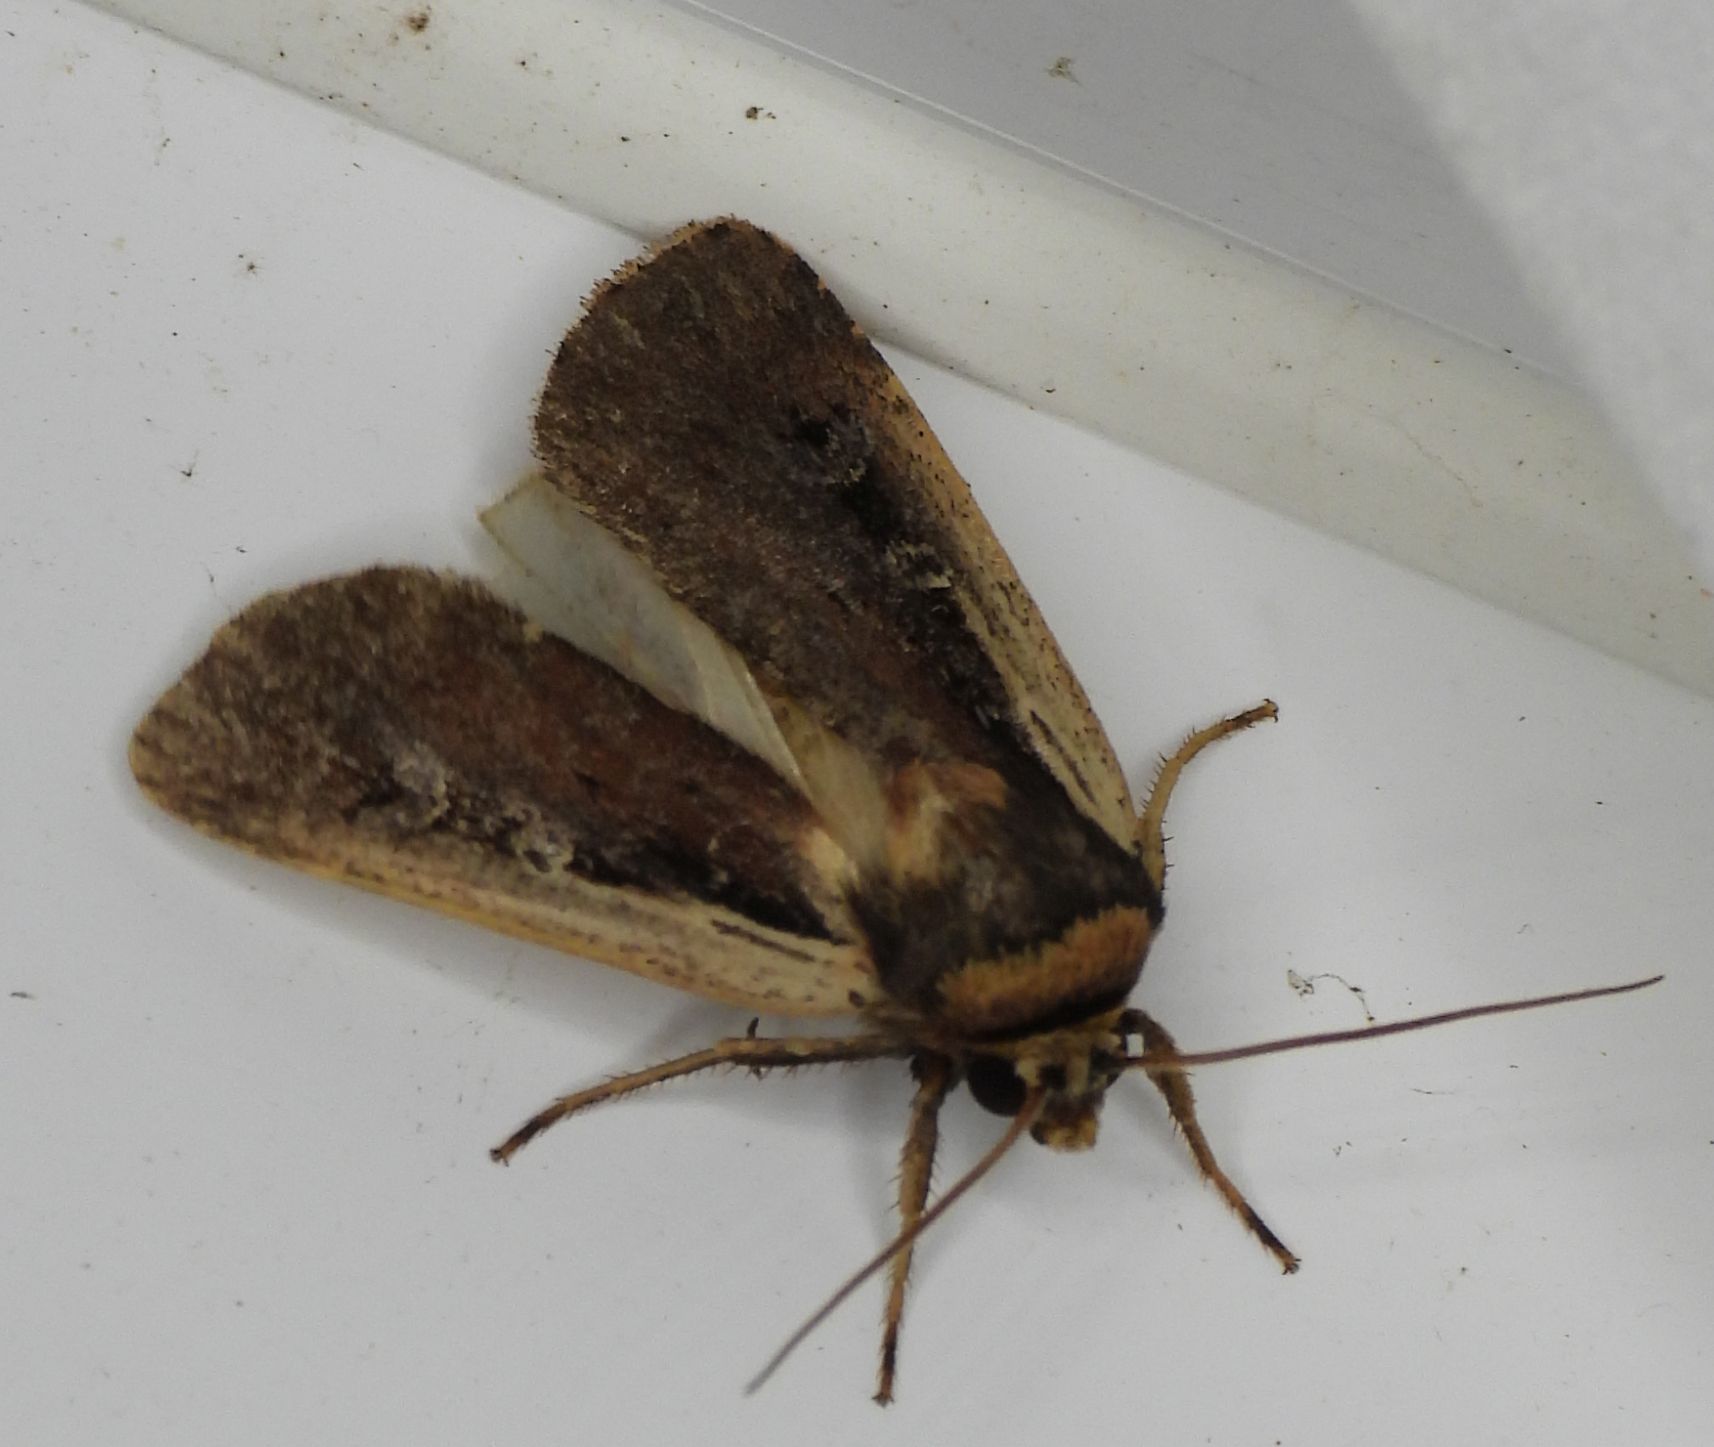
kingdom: Animalia
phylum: Arthropoda
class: Insecta
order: Lepidoptera
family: Noctuidae
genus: Ochropleura
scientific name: Ochropleura implecta
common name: Flame-shouldered dart
